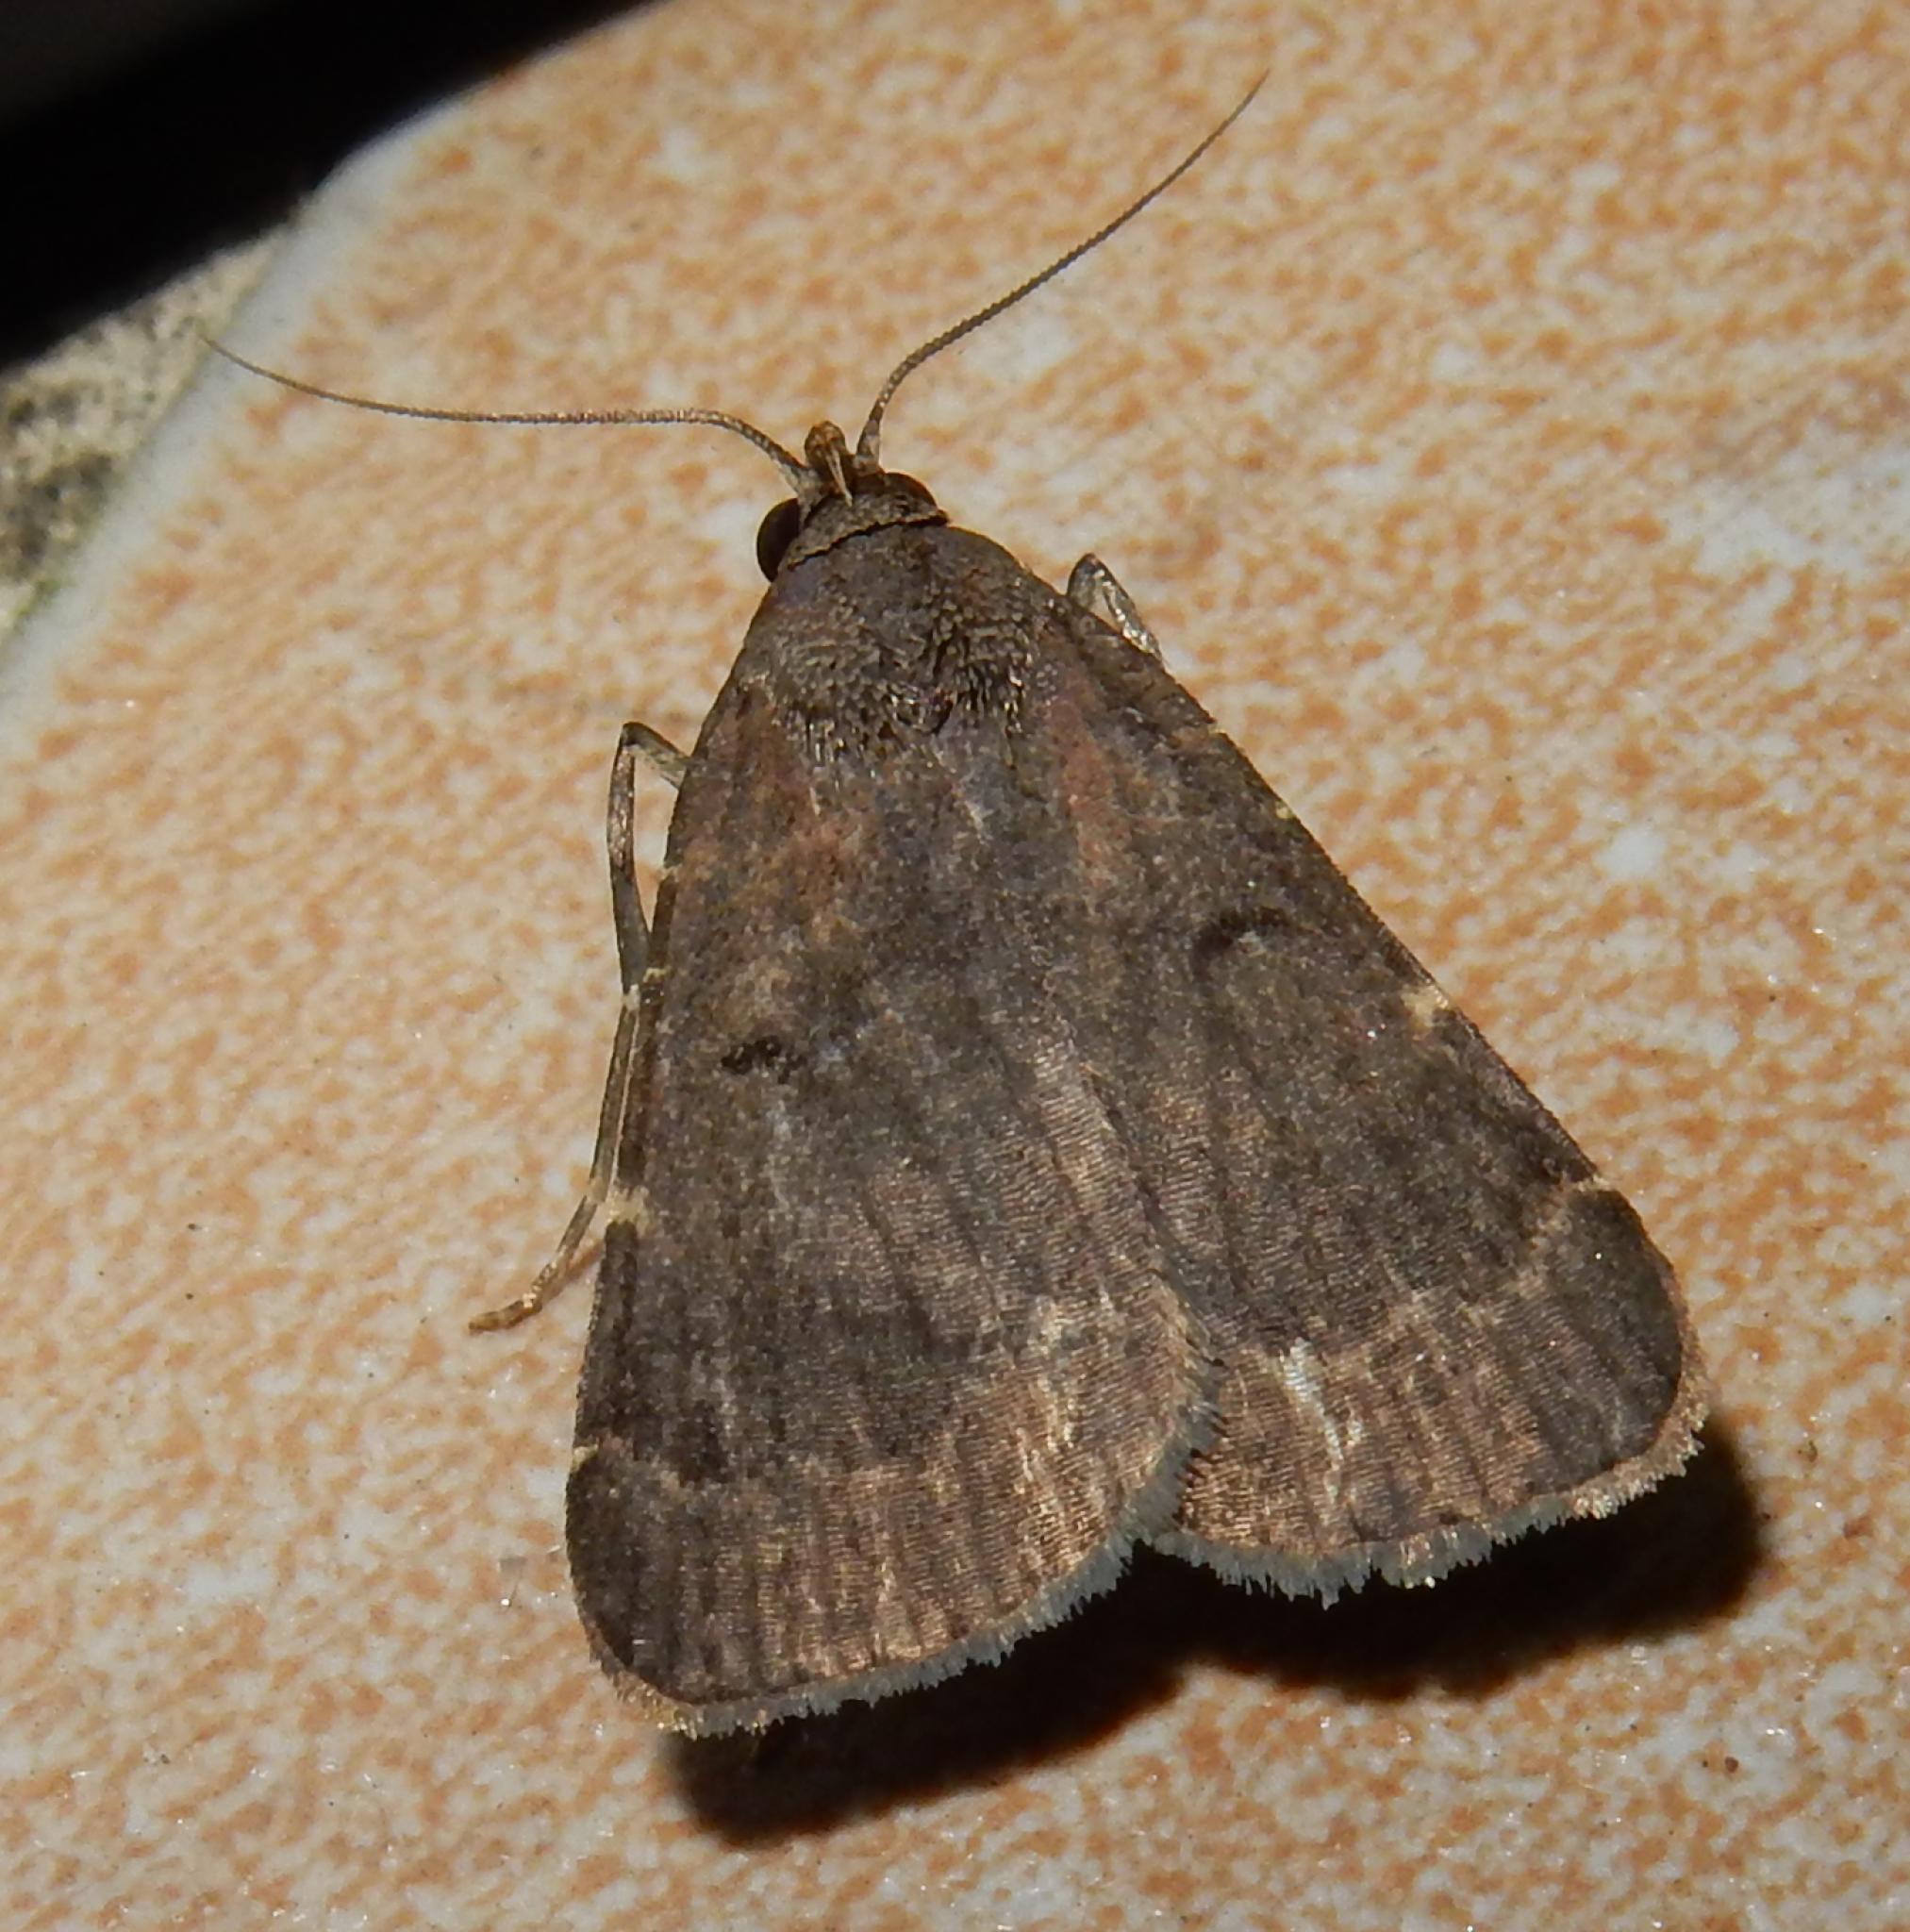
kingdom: Animalia
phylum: Arthropoda
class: Insecta
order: Lepidoptera
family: Erebidae
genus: Hydrillodes
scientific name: Hydrillodes uliginosalis
